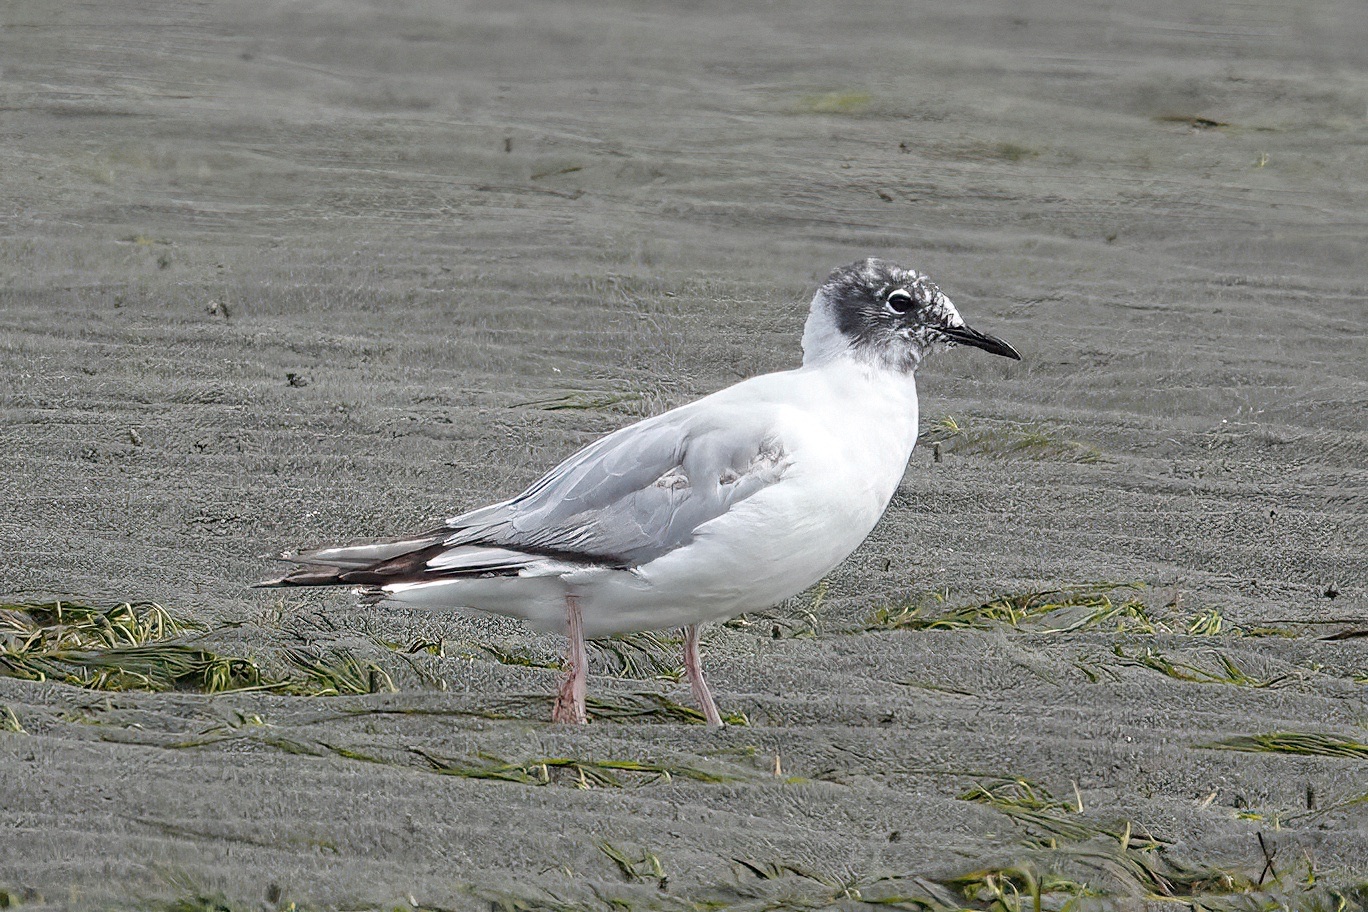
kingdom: Animalia
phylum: Chordata
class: Aves
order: Charadriiformes
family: Laridae
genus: Chroicocephalus
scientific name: Chroicocephalus philadelphia
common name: Bonaparte's gull
